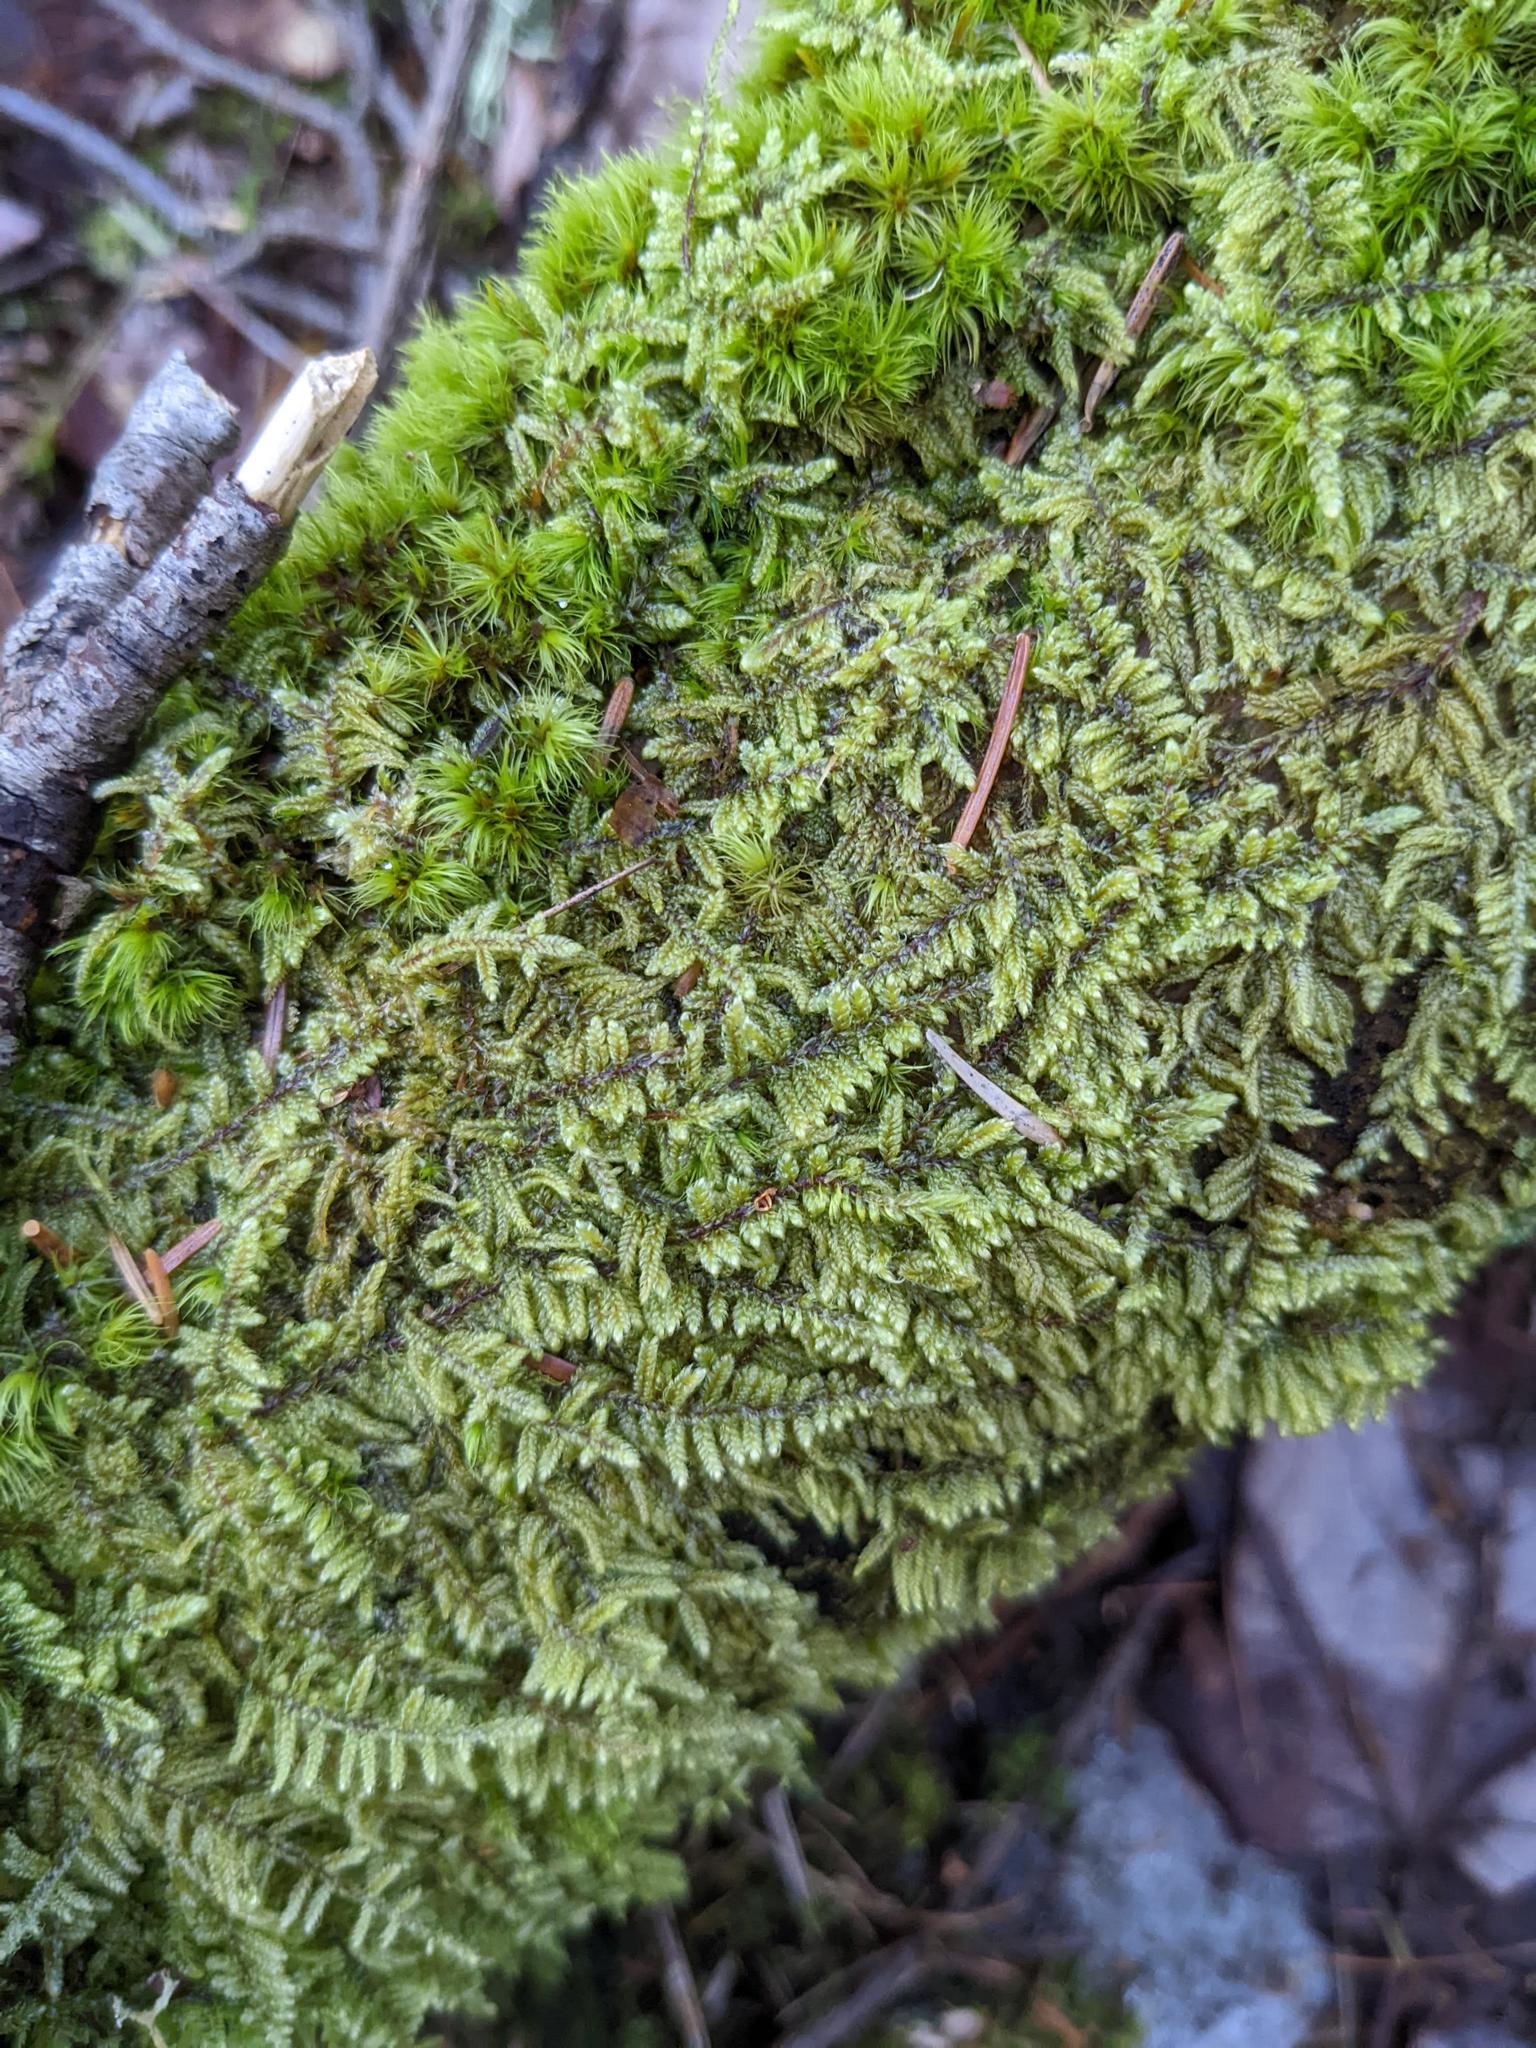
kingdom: Plantae
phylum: Bryophyta
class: Bryopsida
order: Hypnales
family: Callicladiaceae
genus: Callicladium
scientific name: Callicladium imponens
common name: Brocade moss
